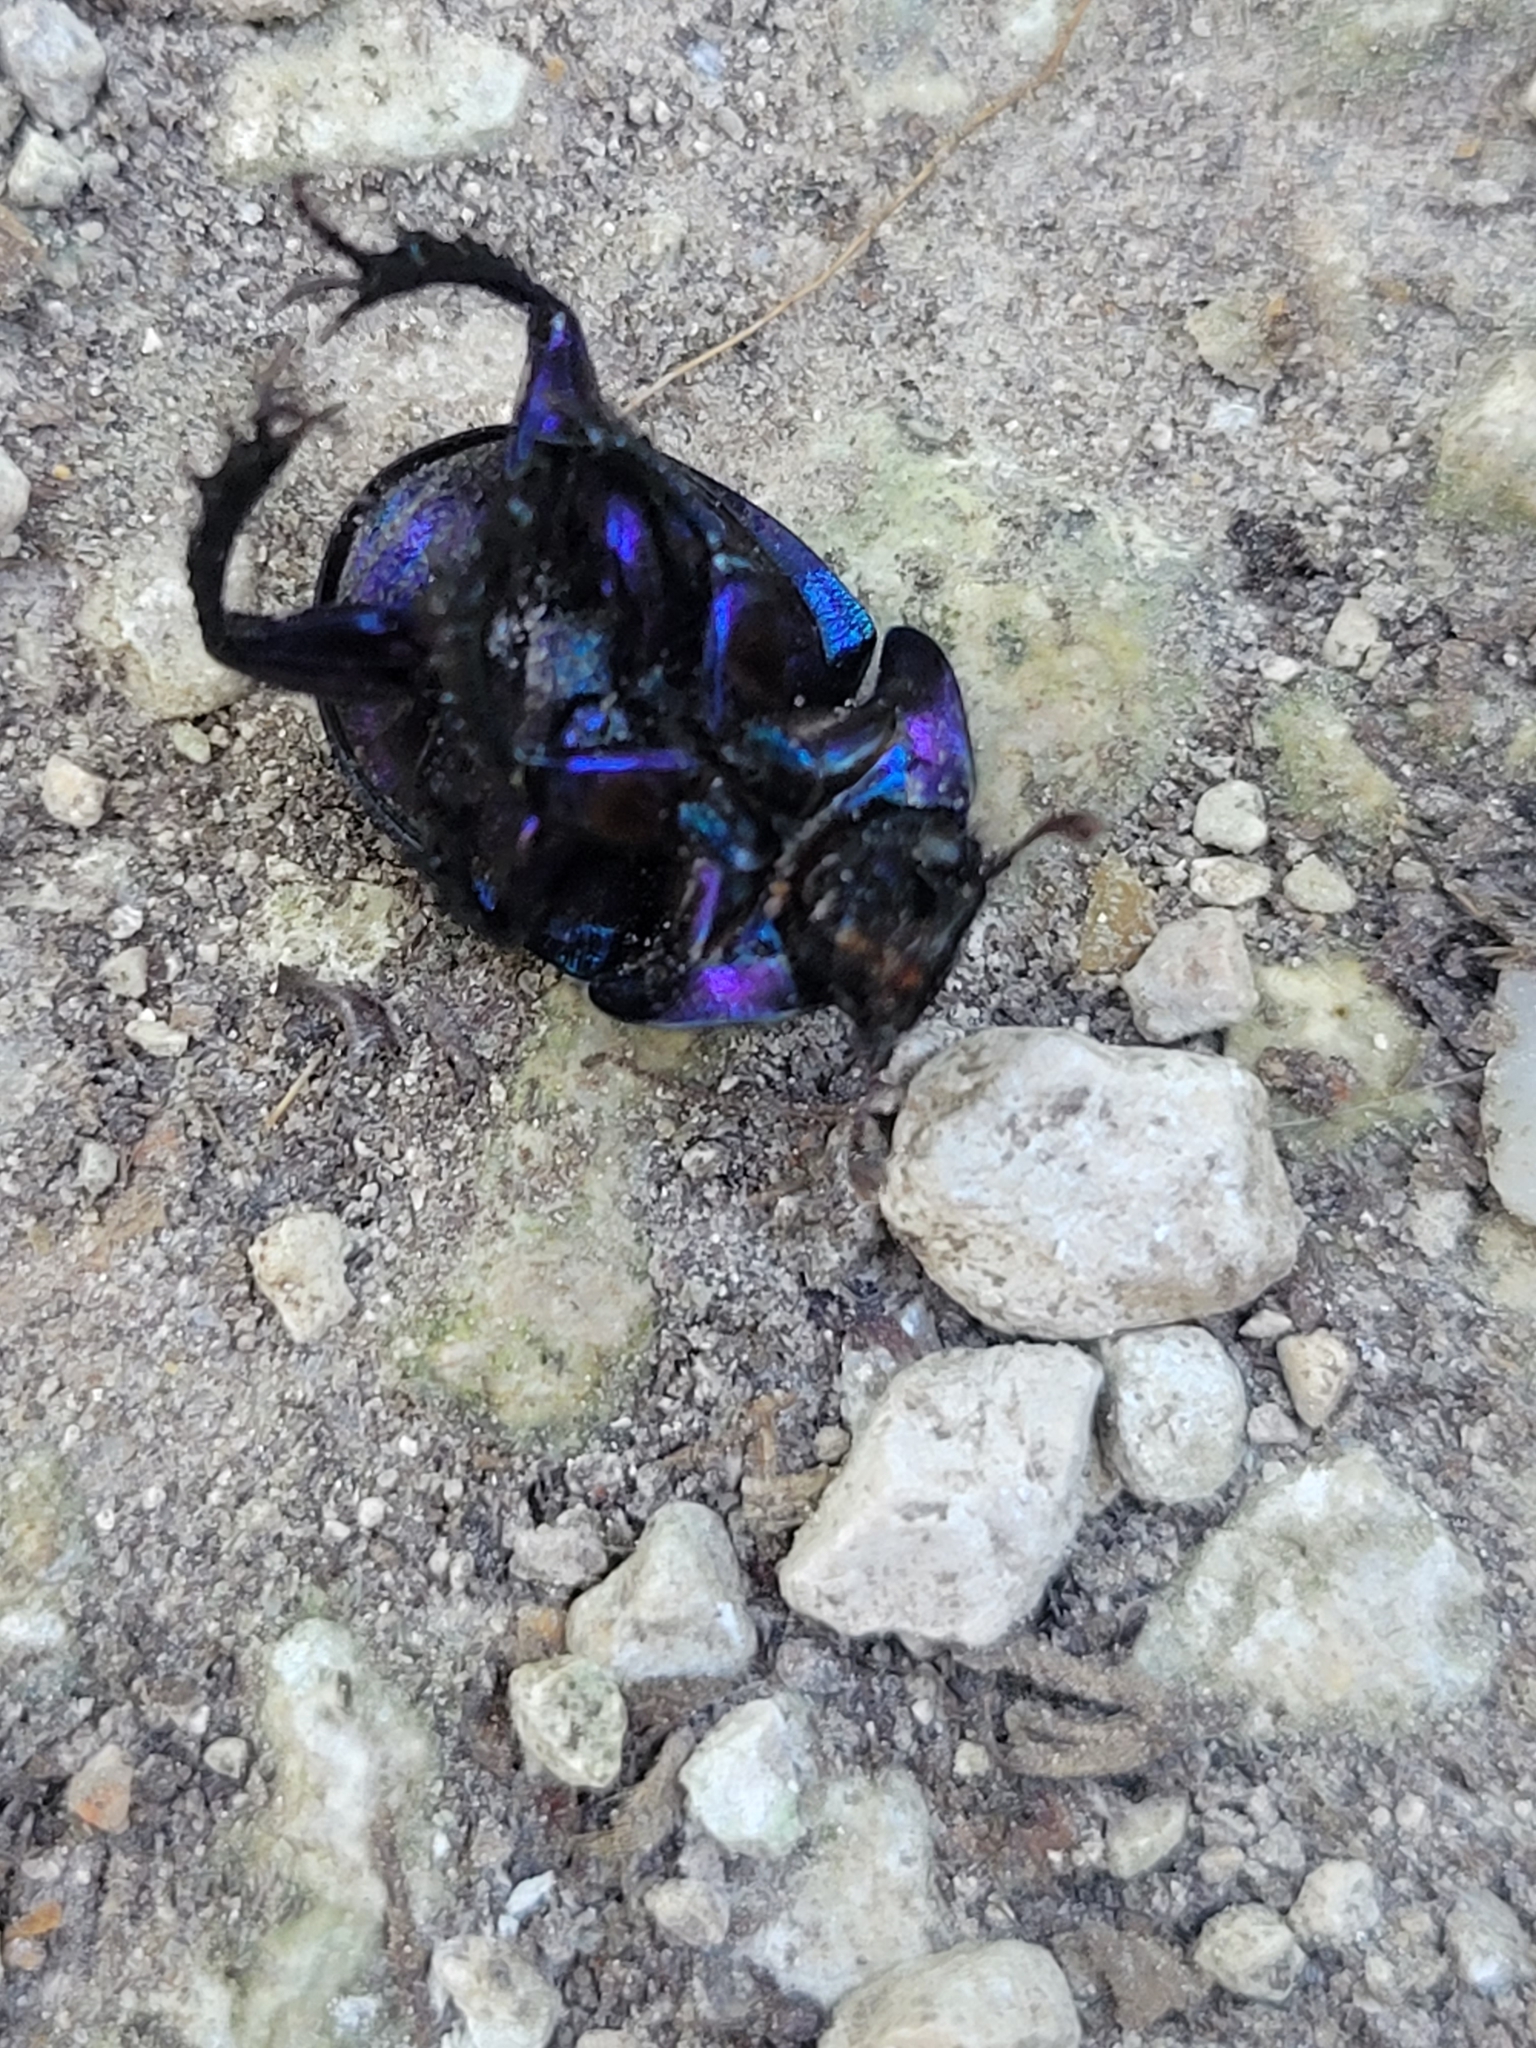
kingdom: Animalia
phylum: Arthropoda
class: Insecta
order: Coleoptera
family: Geotrupidae
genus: Anoplotrupes
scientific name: Anoplotrupes stercorosus
